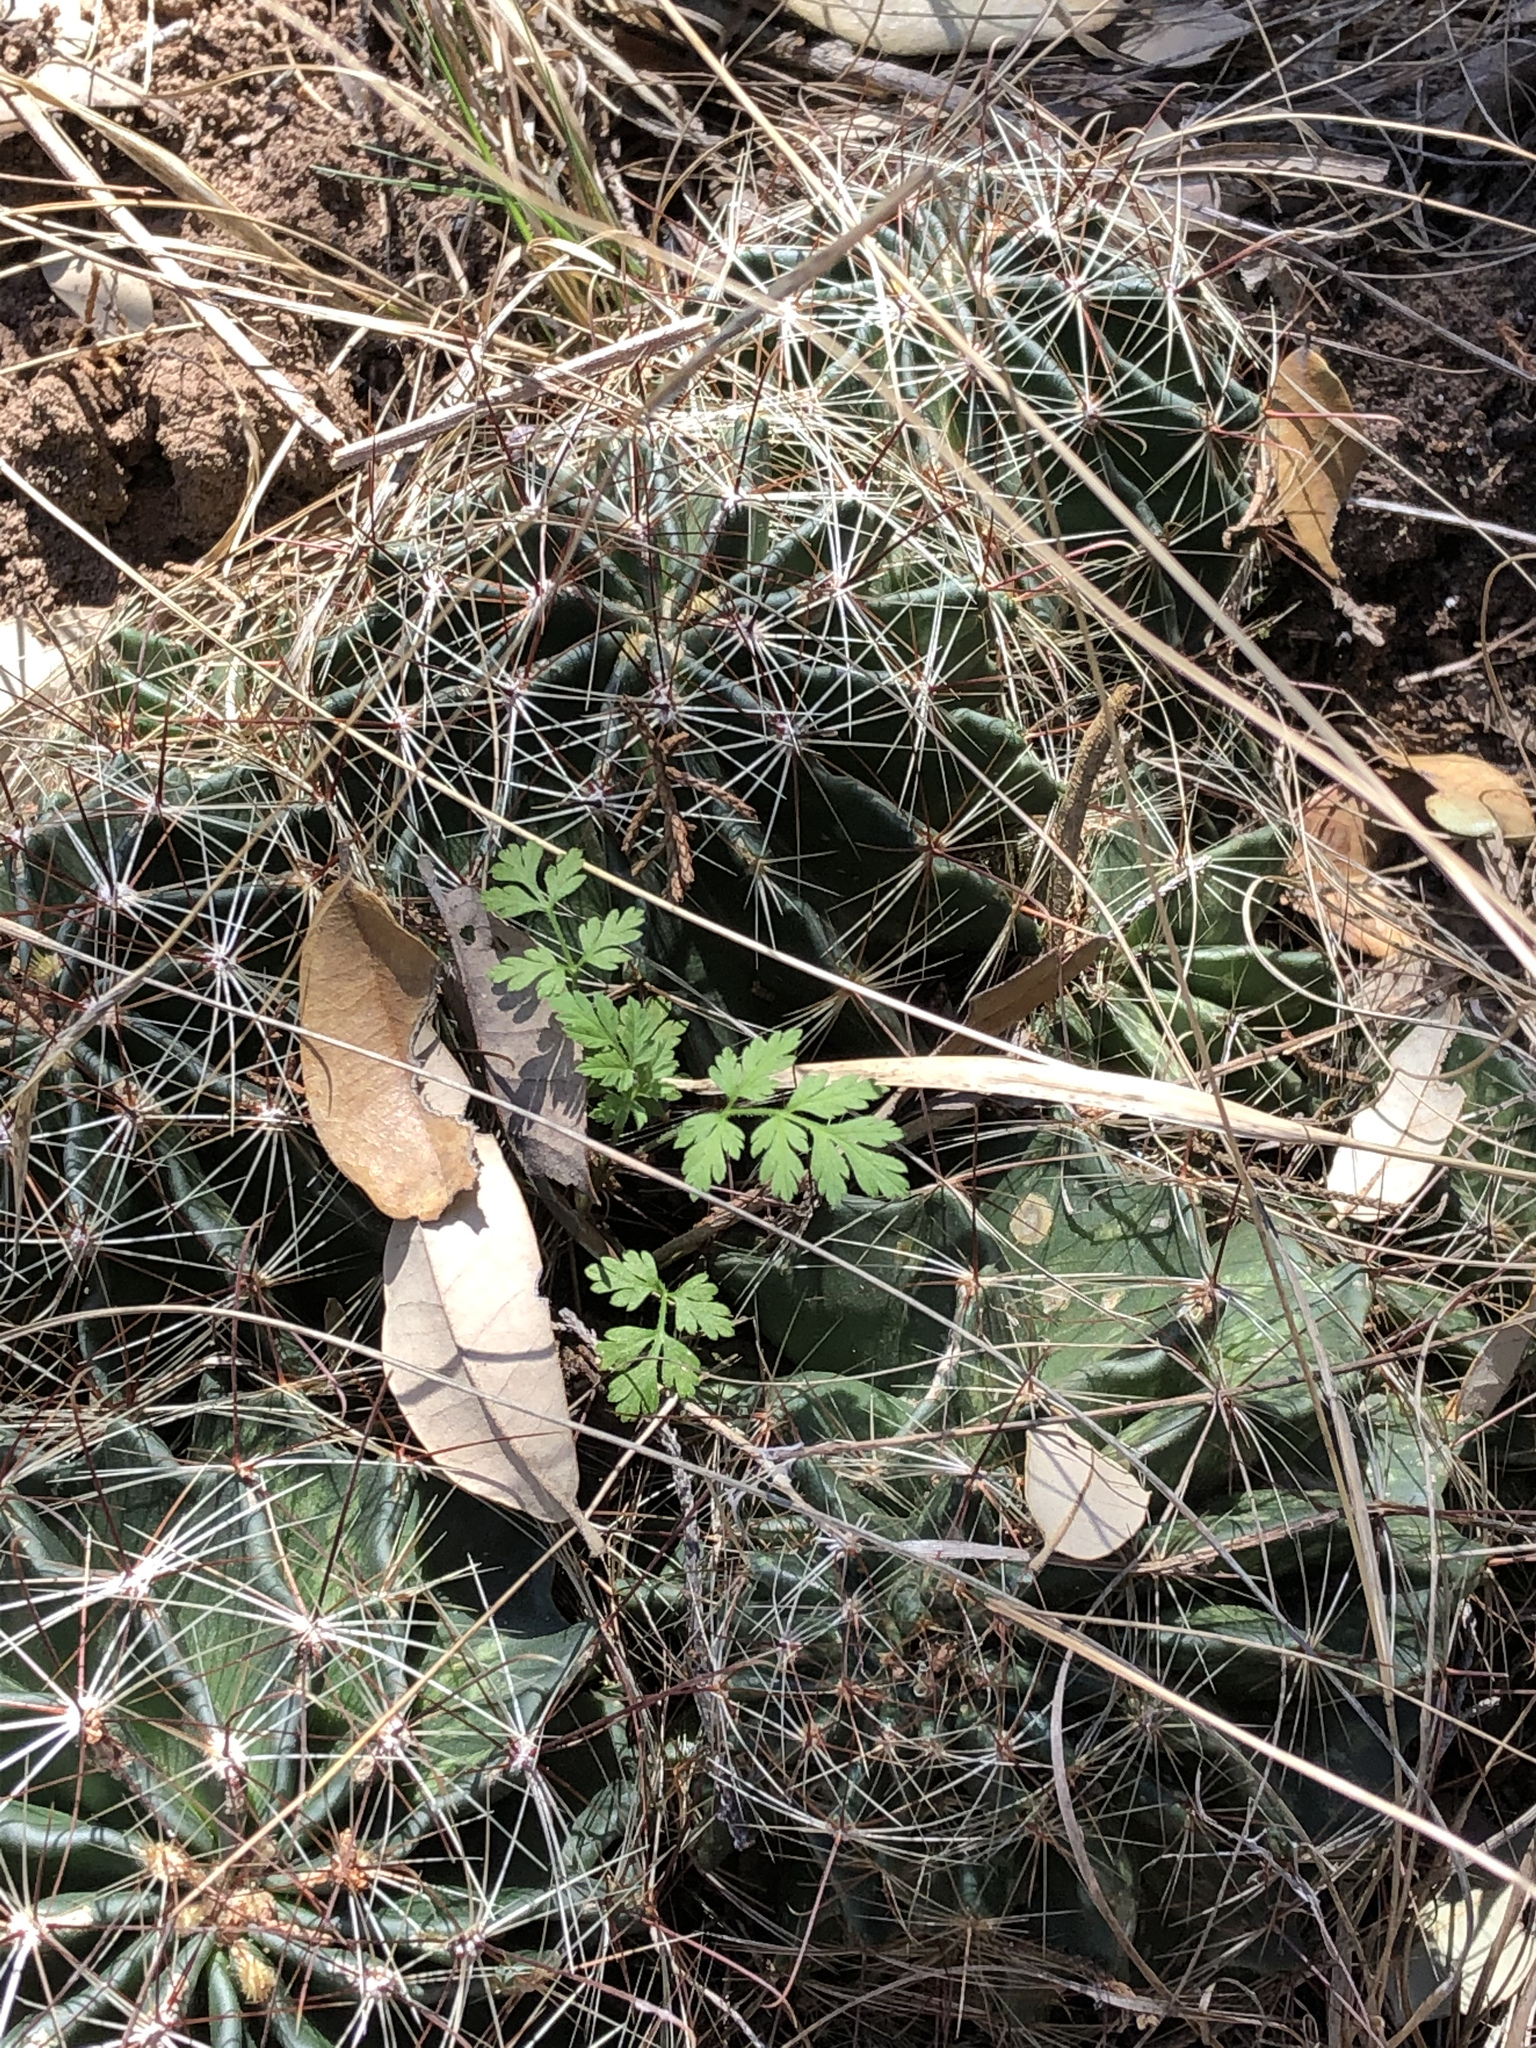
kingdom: Plantae
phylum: Tracheophyta
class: Magnoliopsida
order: Caryophyllales
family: Cactaceae
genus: Thelocactus
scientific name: Thelocactus setispinus
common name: Miniature barrel cactus
